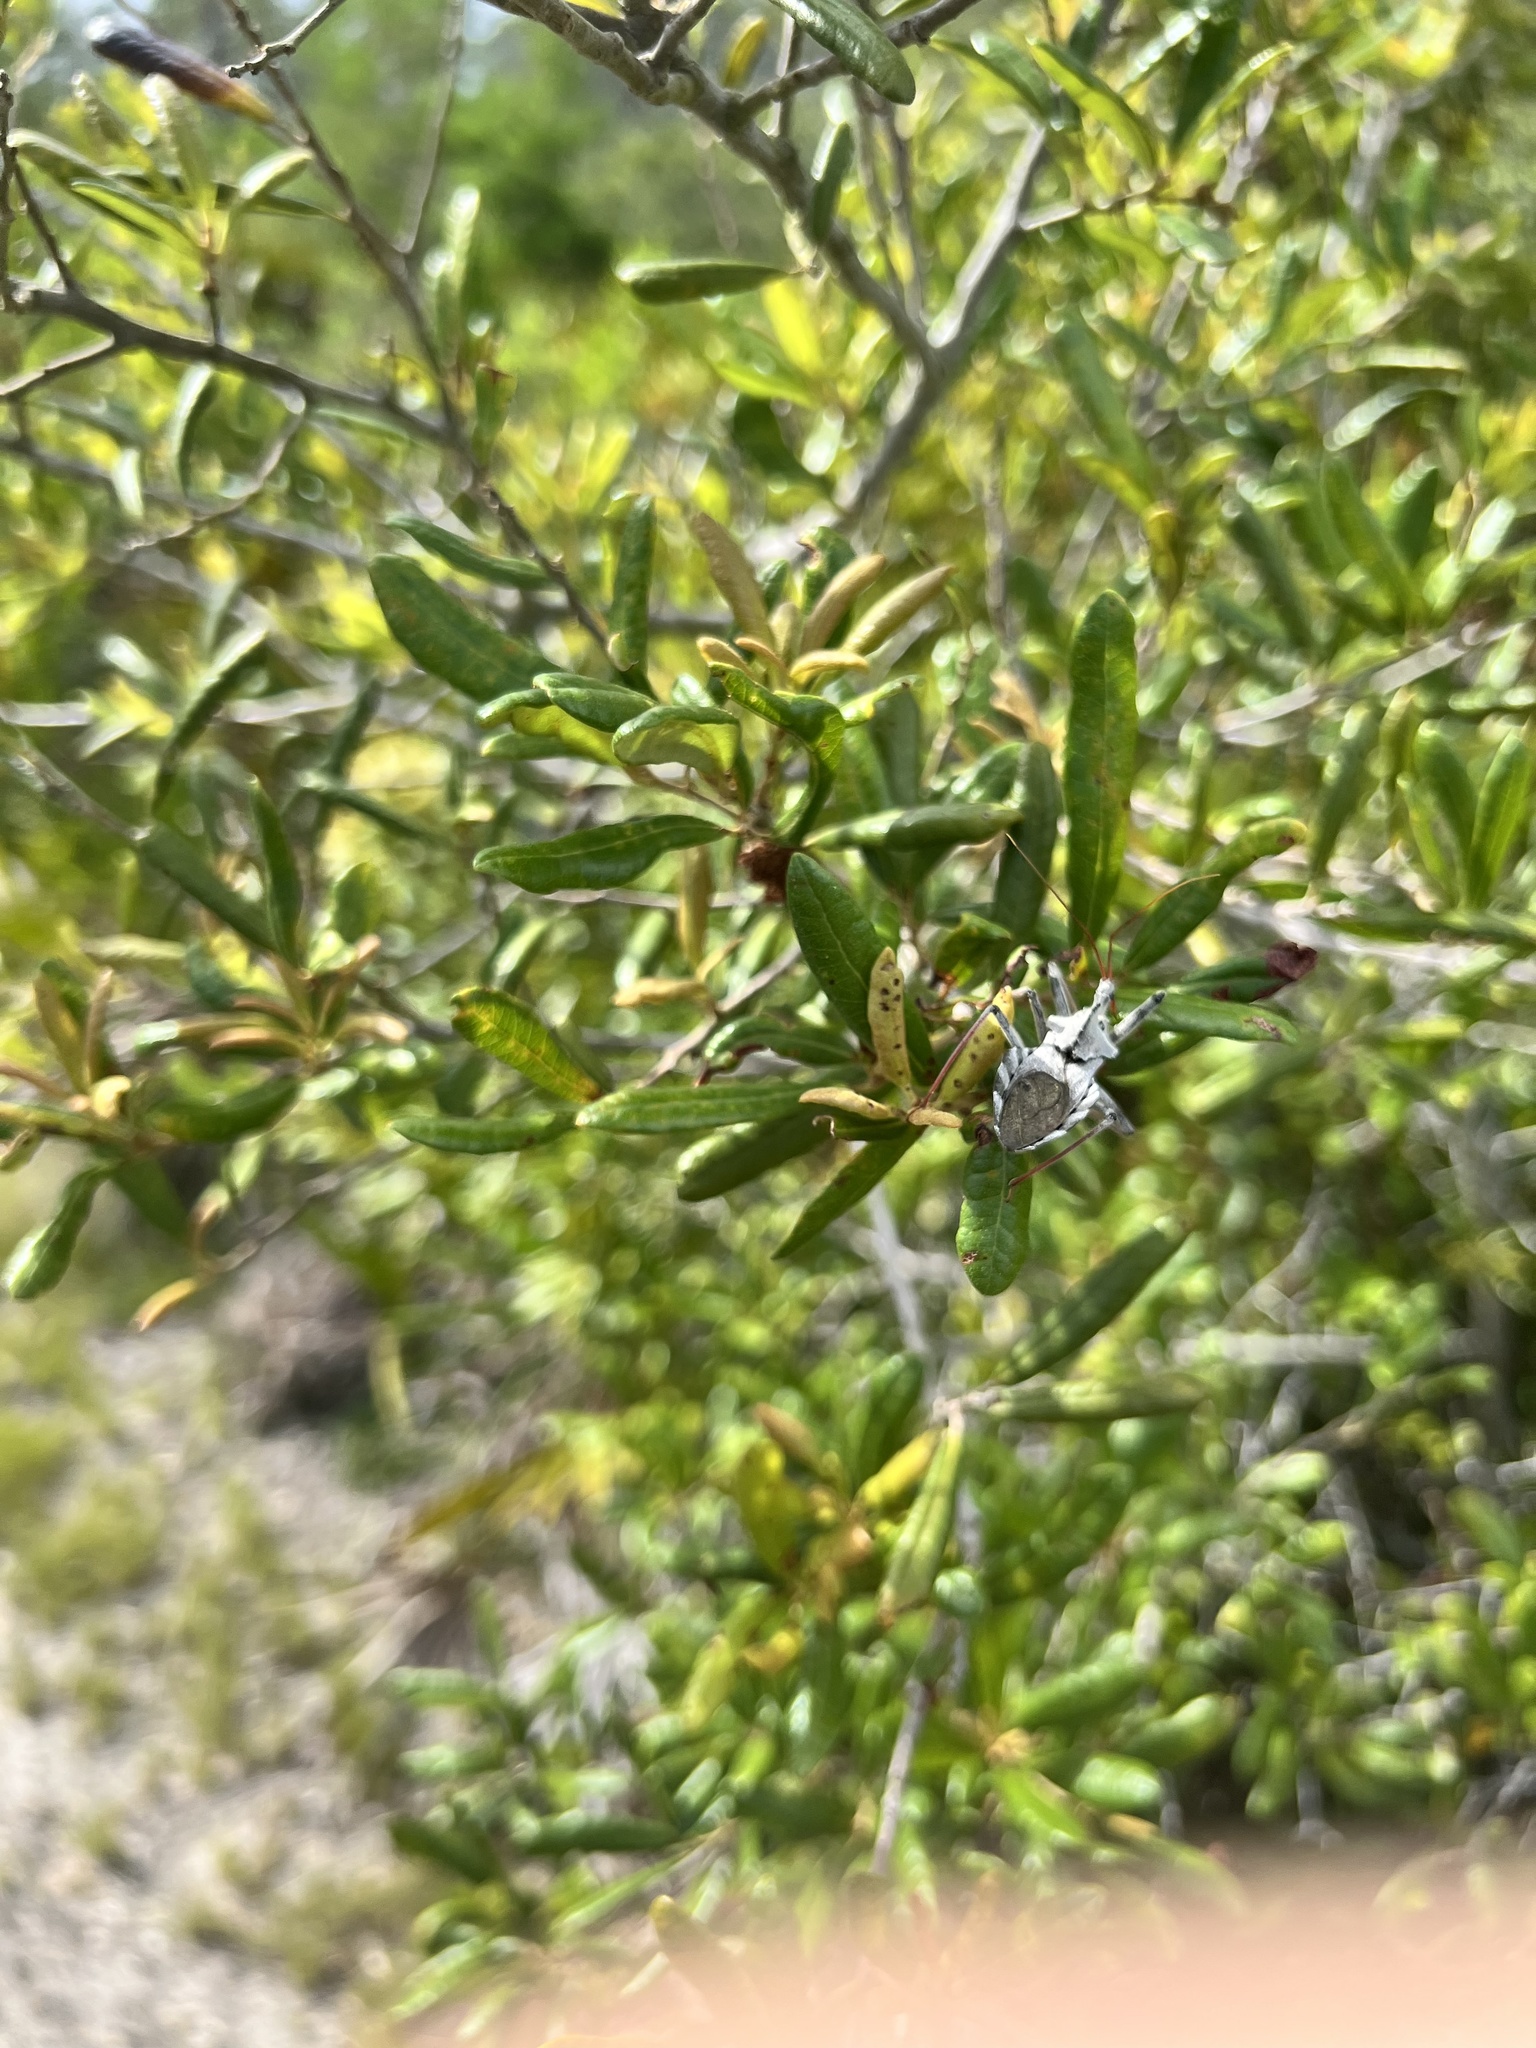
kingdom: Animalia
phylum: Arthropoda
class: Insecta
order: Hemiptera
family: Reduviidae
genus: Arilus
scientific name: Arilus cristatus
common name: North american wheel bug
